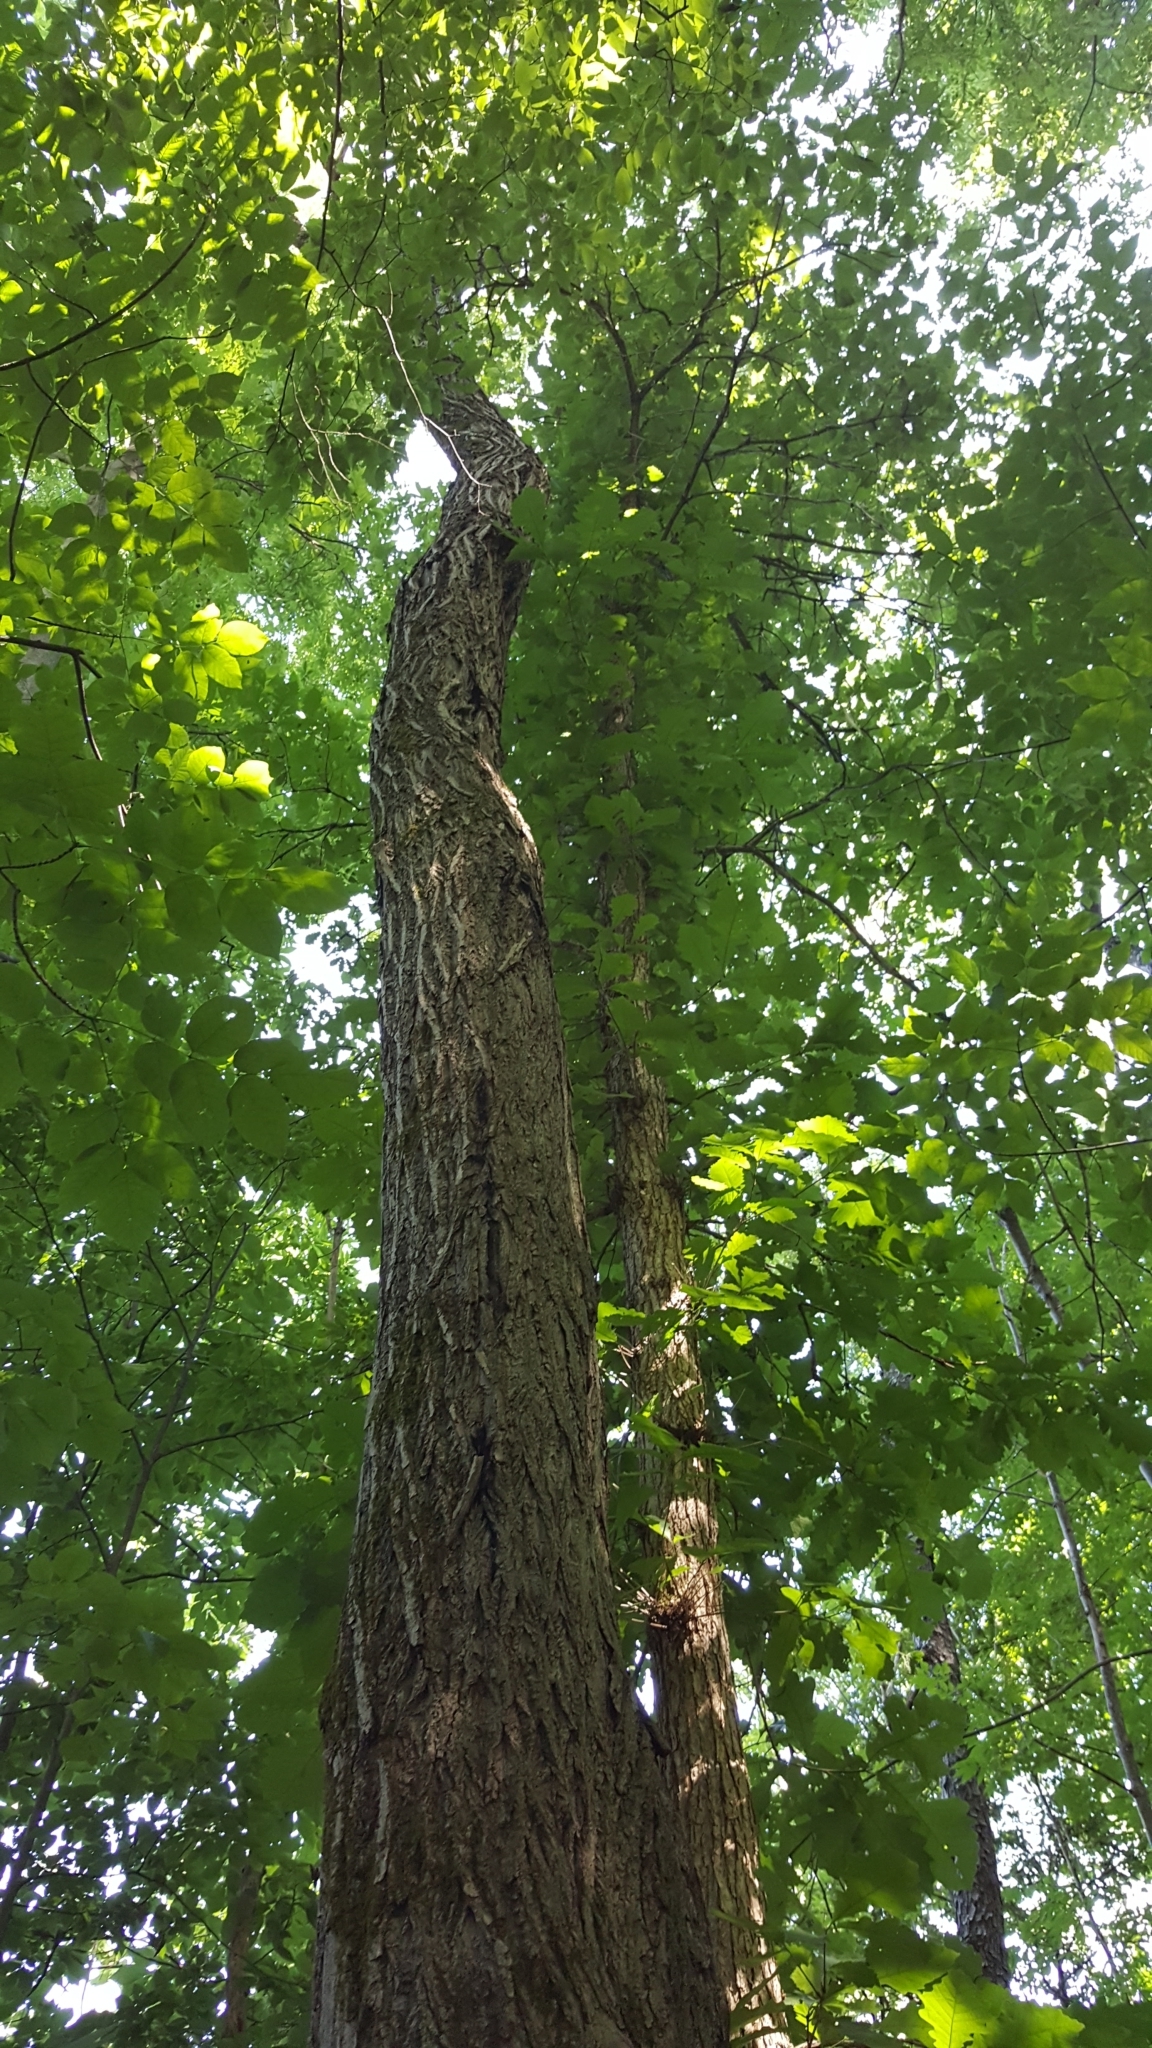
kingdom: Plantae
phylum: Tracheophyta
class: Magnoliopsida
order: Fagales
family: Juglandaceae
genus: Juglans
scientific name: Juglans cinerea
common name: Butternut
